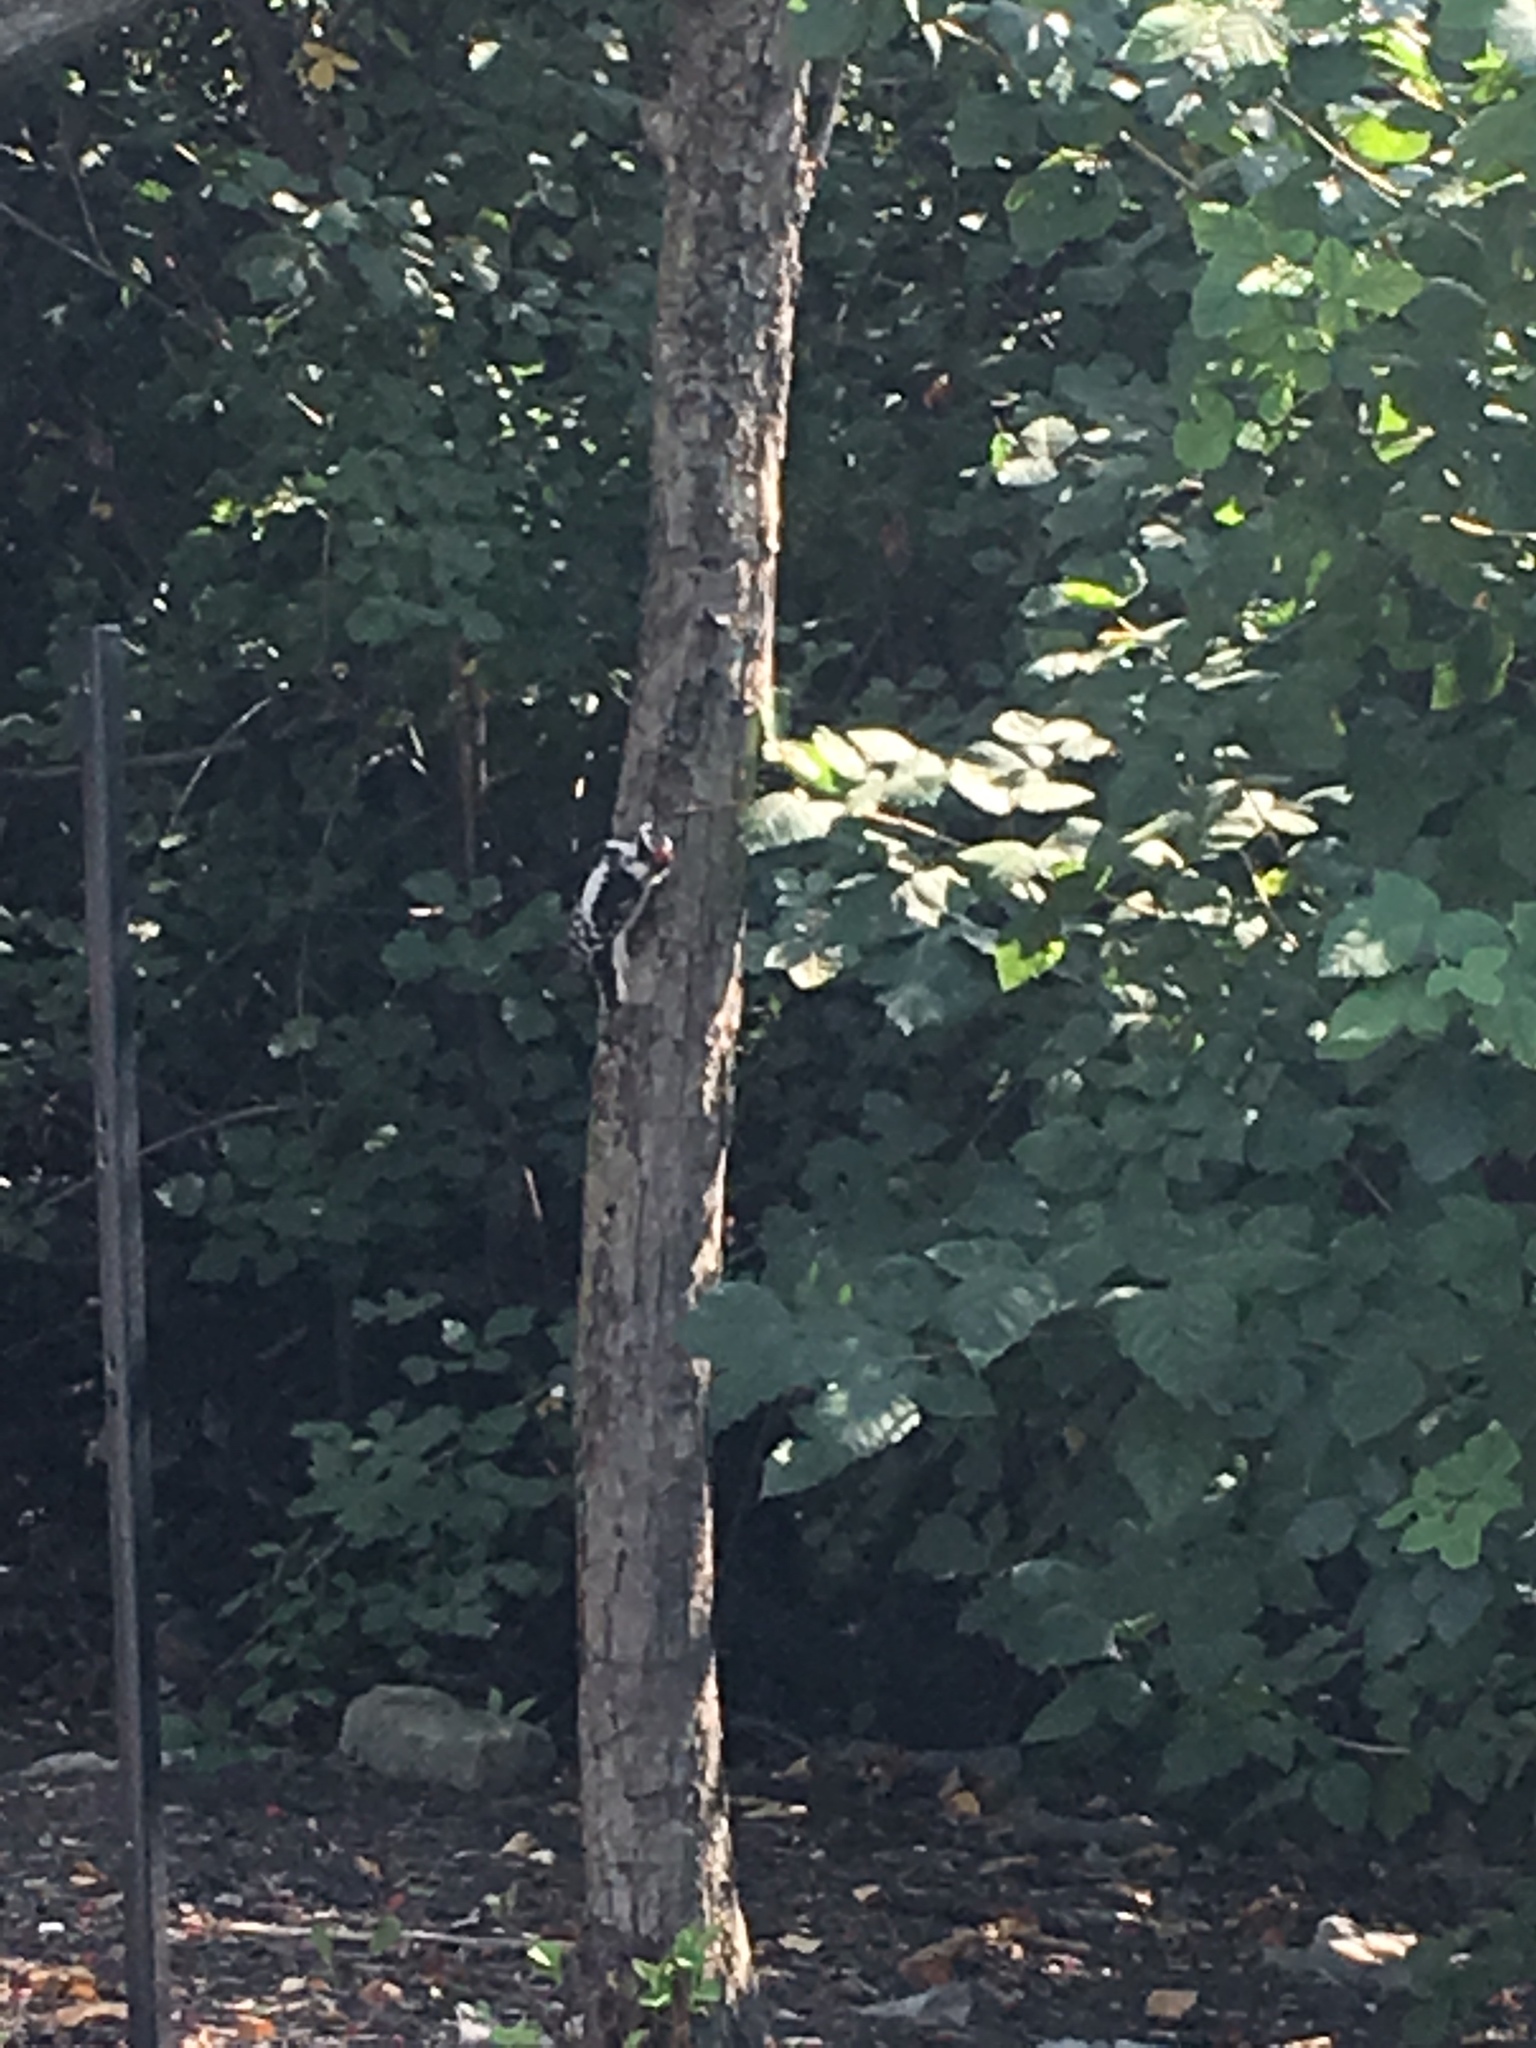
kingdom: Animalia
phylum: Chordata
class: Aves
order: Piciformes
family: Picidae
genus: Dryobates
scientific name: Dryobates pubescens
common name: Downy woodpecker
